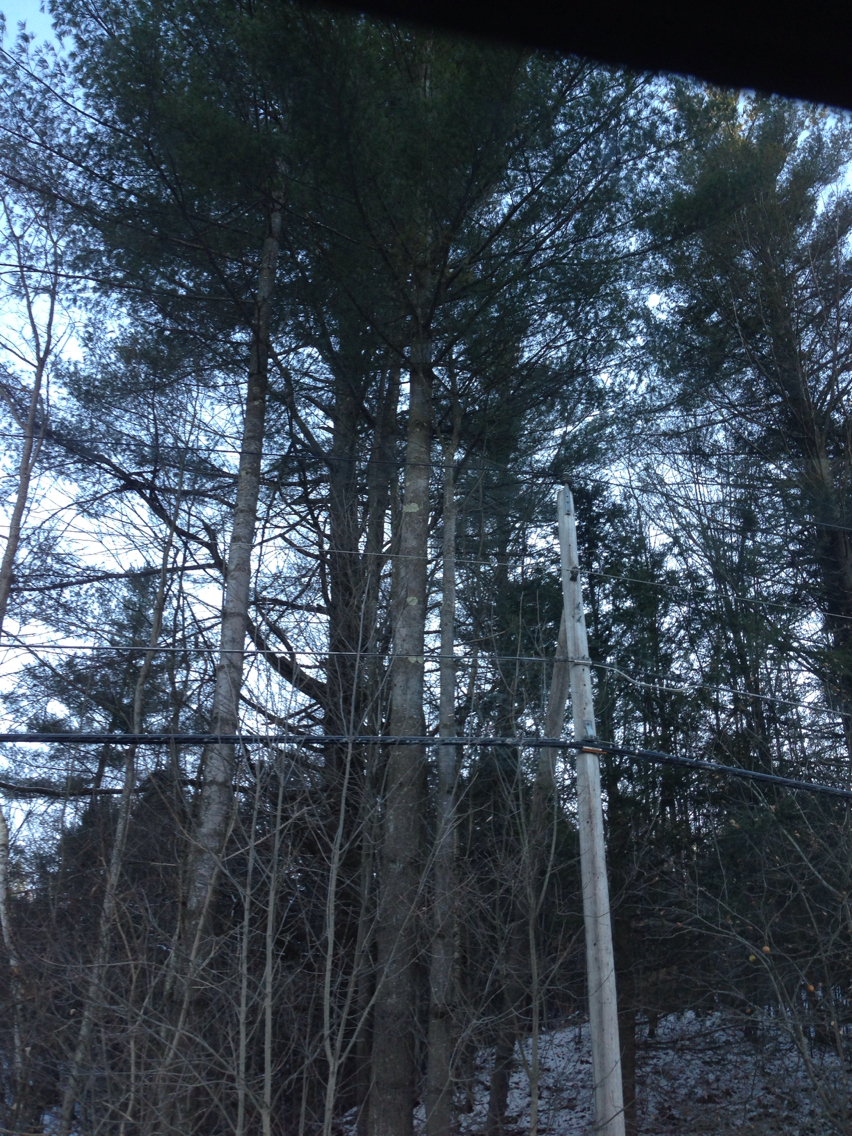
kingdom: Plantae
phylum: Tracheophyta
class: Pinopsida
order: Pinales
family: Pinaceae
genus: Pinus
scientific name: Pinus strobus
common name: Weymouth pine
